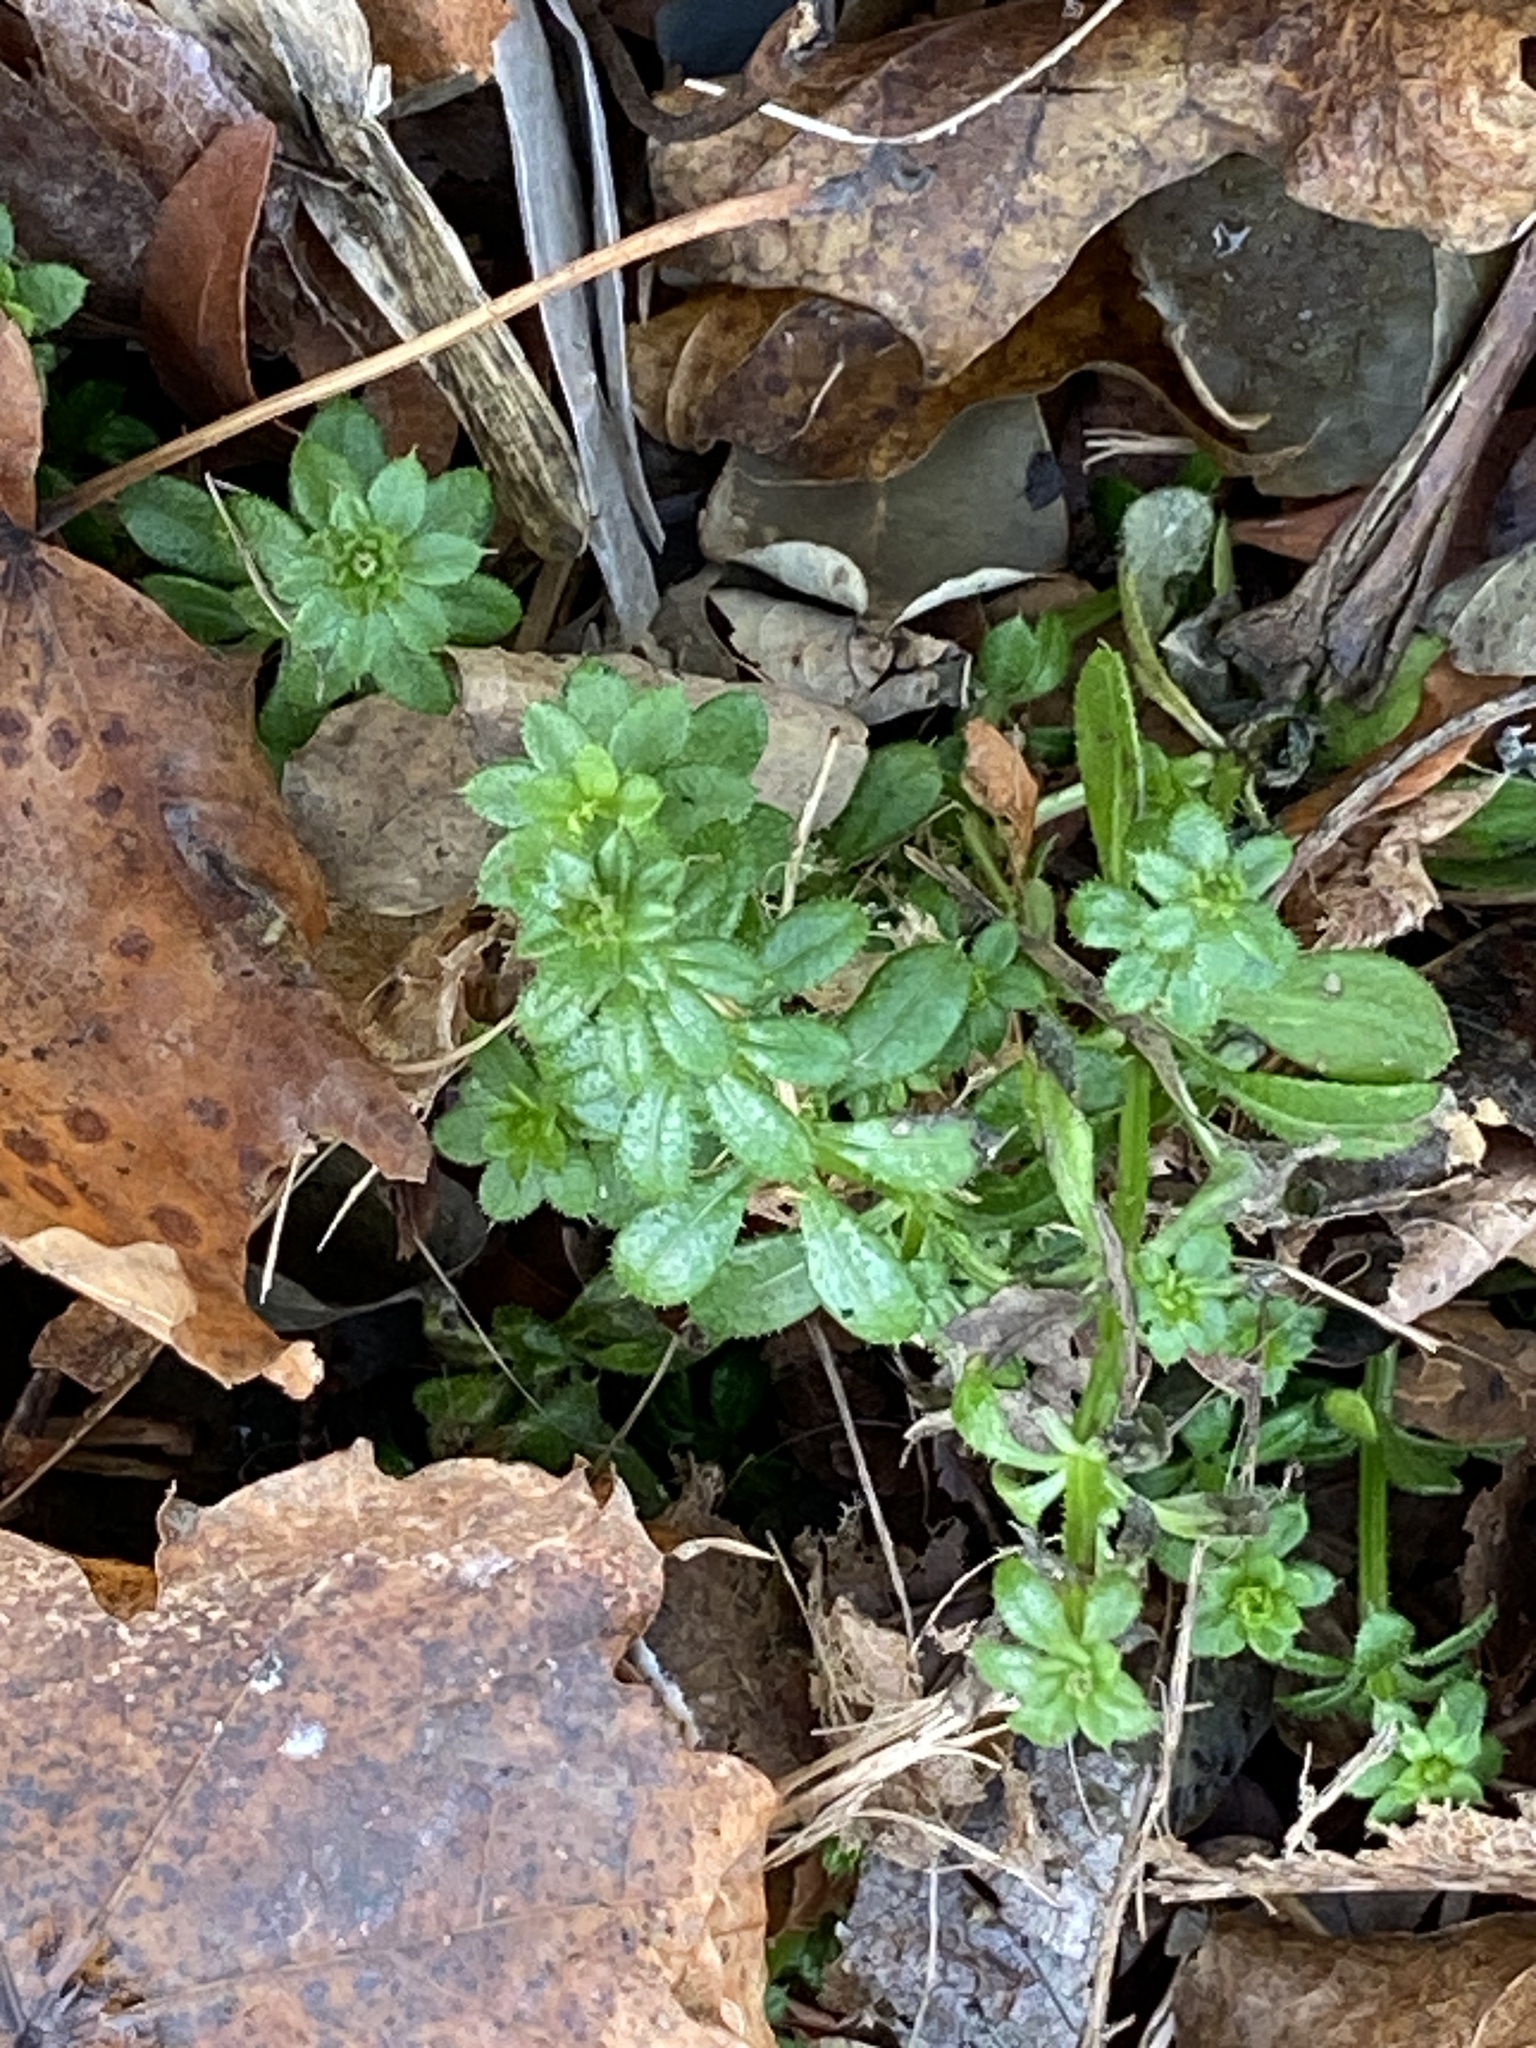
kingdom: Plantae
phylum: Tracheophyta
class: Magnoliopsida
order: Gentianales
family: Rubiaceae
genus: Galium
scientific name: Galium aparine
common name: Cleavers
